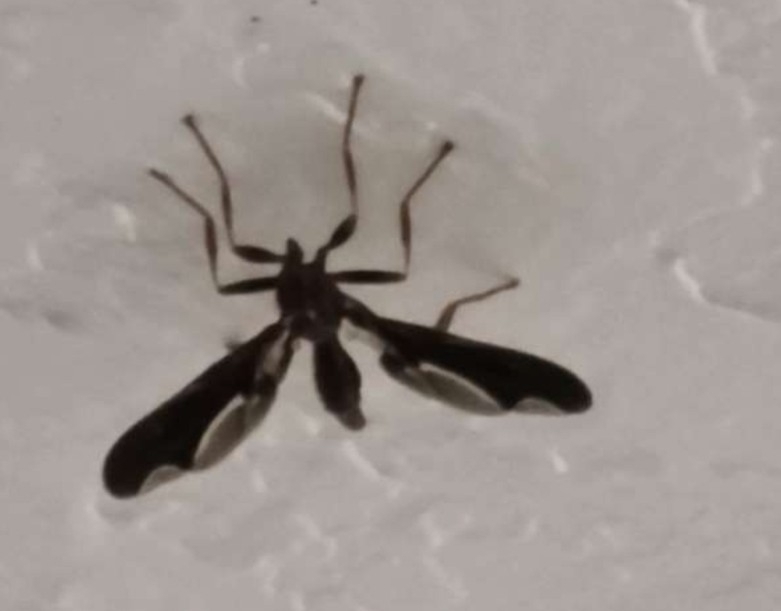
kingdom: Animalia
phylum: Arthropoda
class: Insecta
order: Diptera
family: Pyrgotidae
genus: Pyrgota
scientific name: Pyrgota undata
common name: Waved light fly
